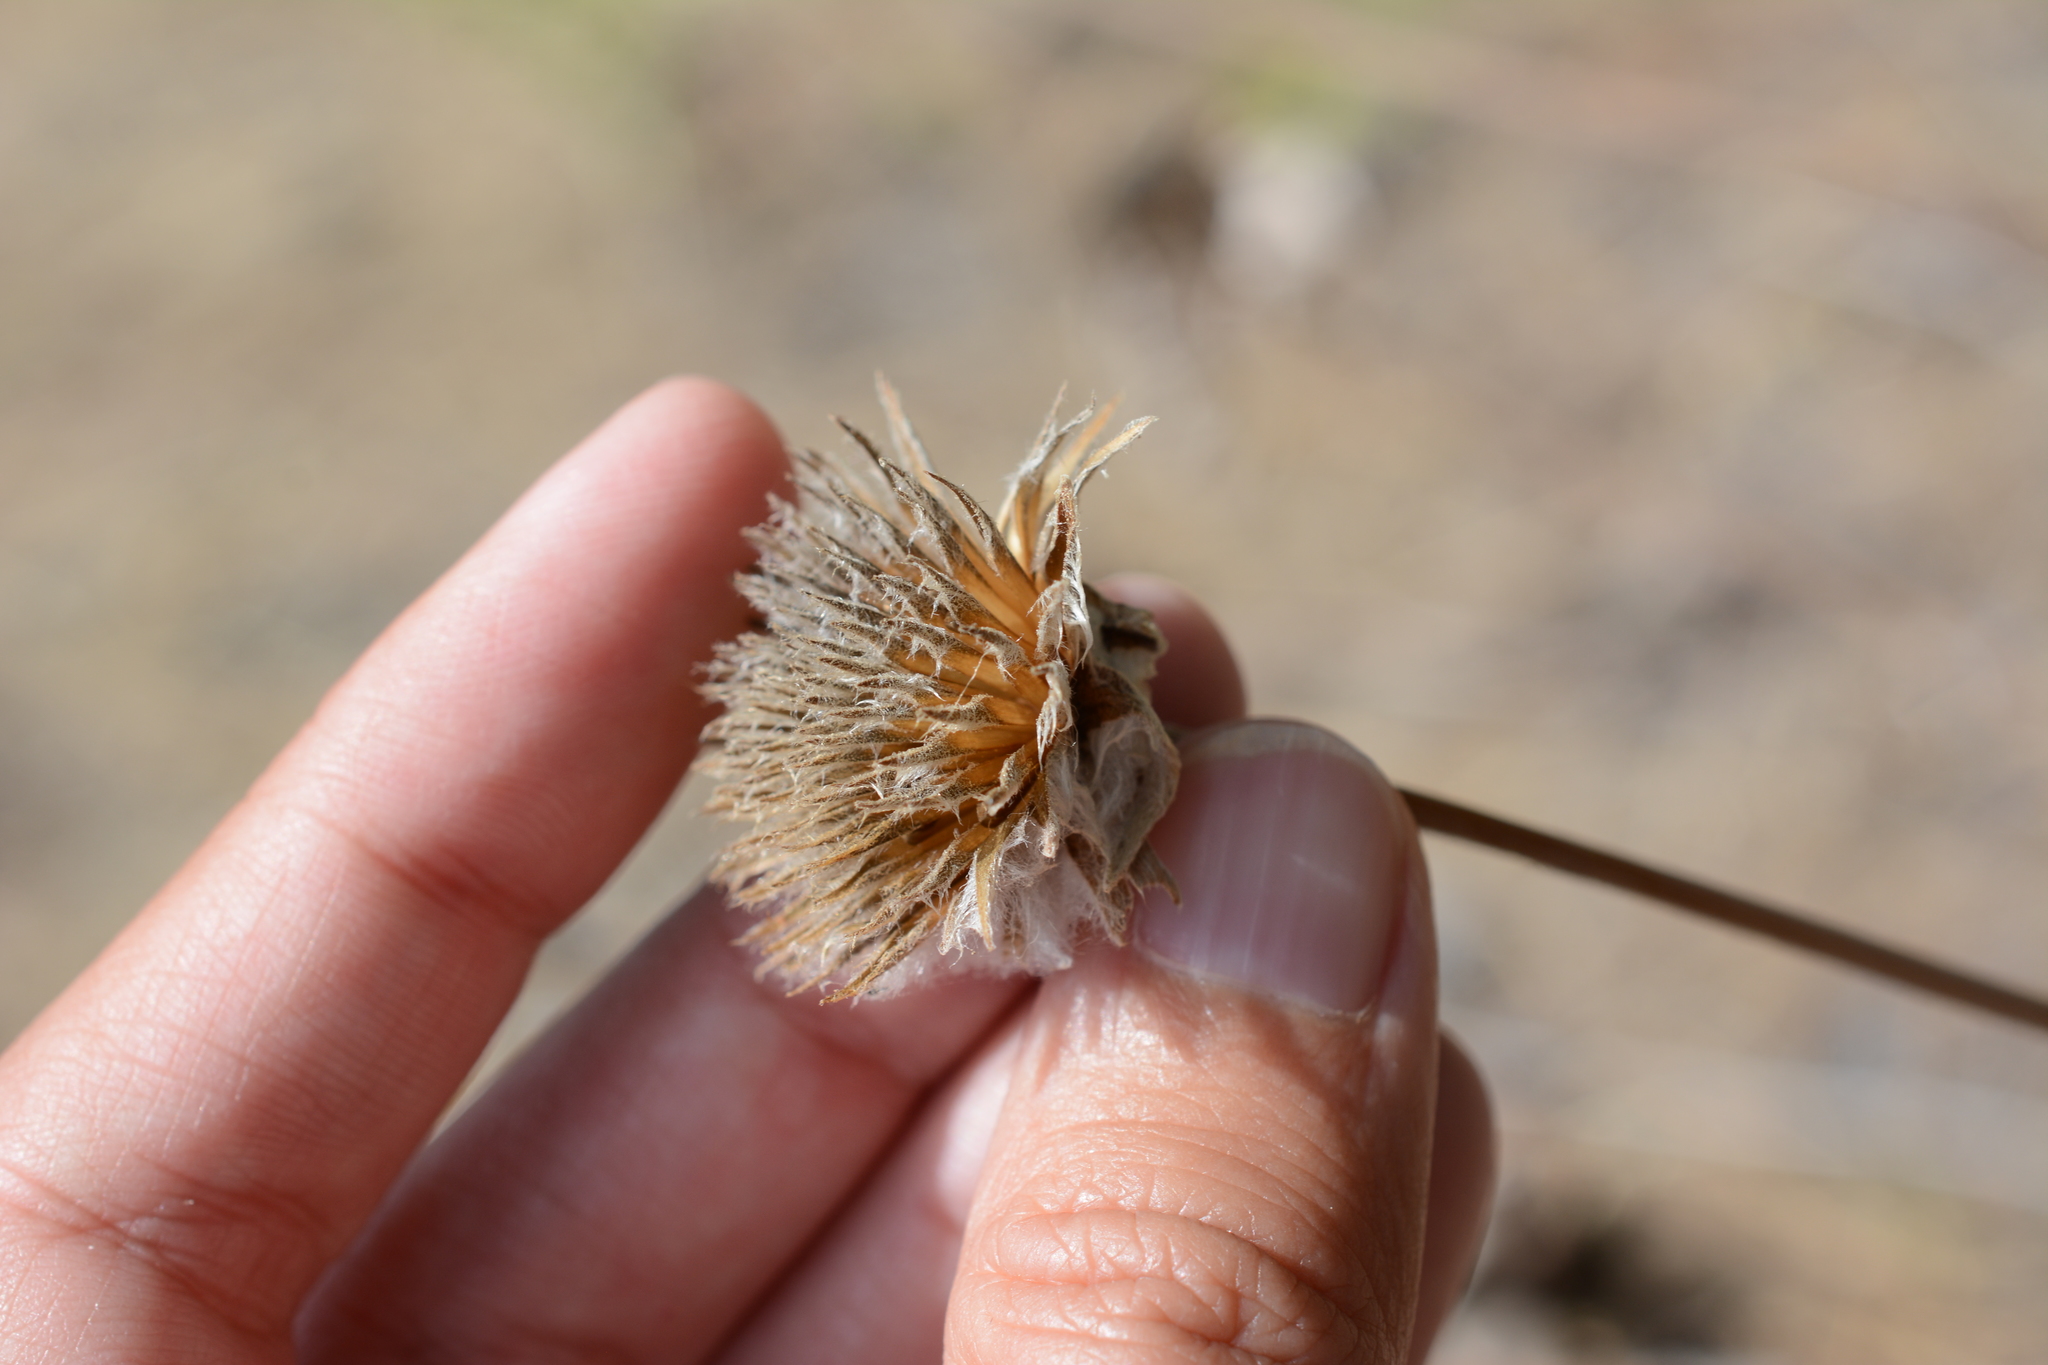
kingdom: Plantae
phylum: Tracheophyta
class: Magnoliopsida
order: Asterales
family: Asteraceae
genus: Wyethia
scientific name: Wyethia sagittata
